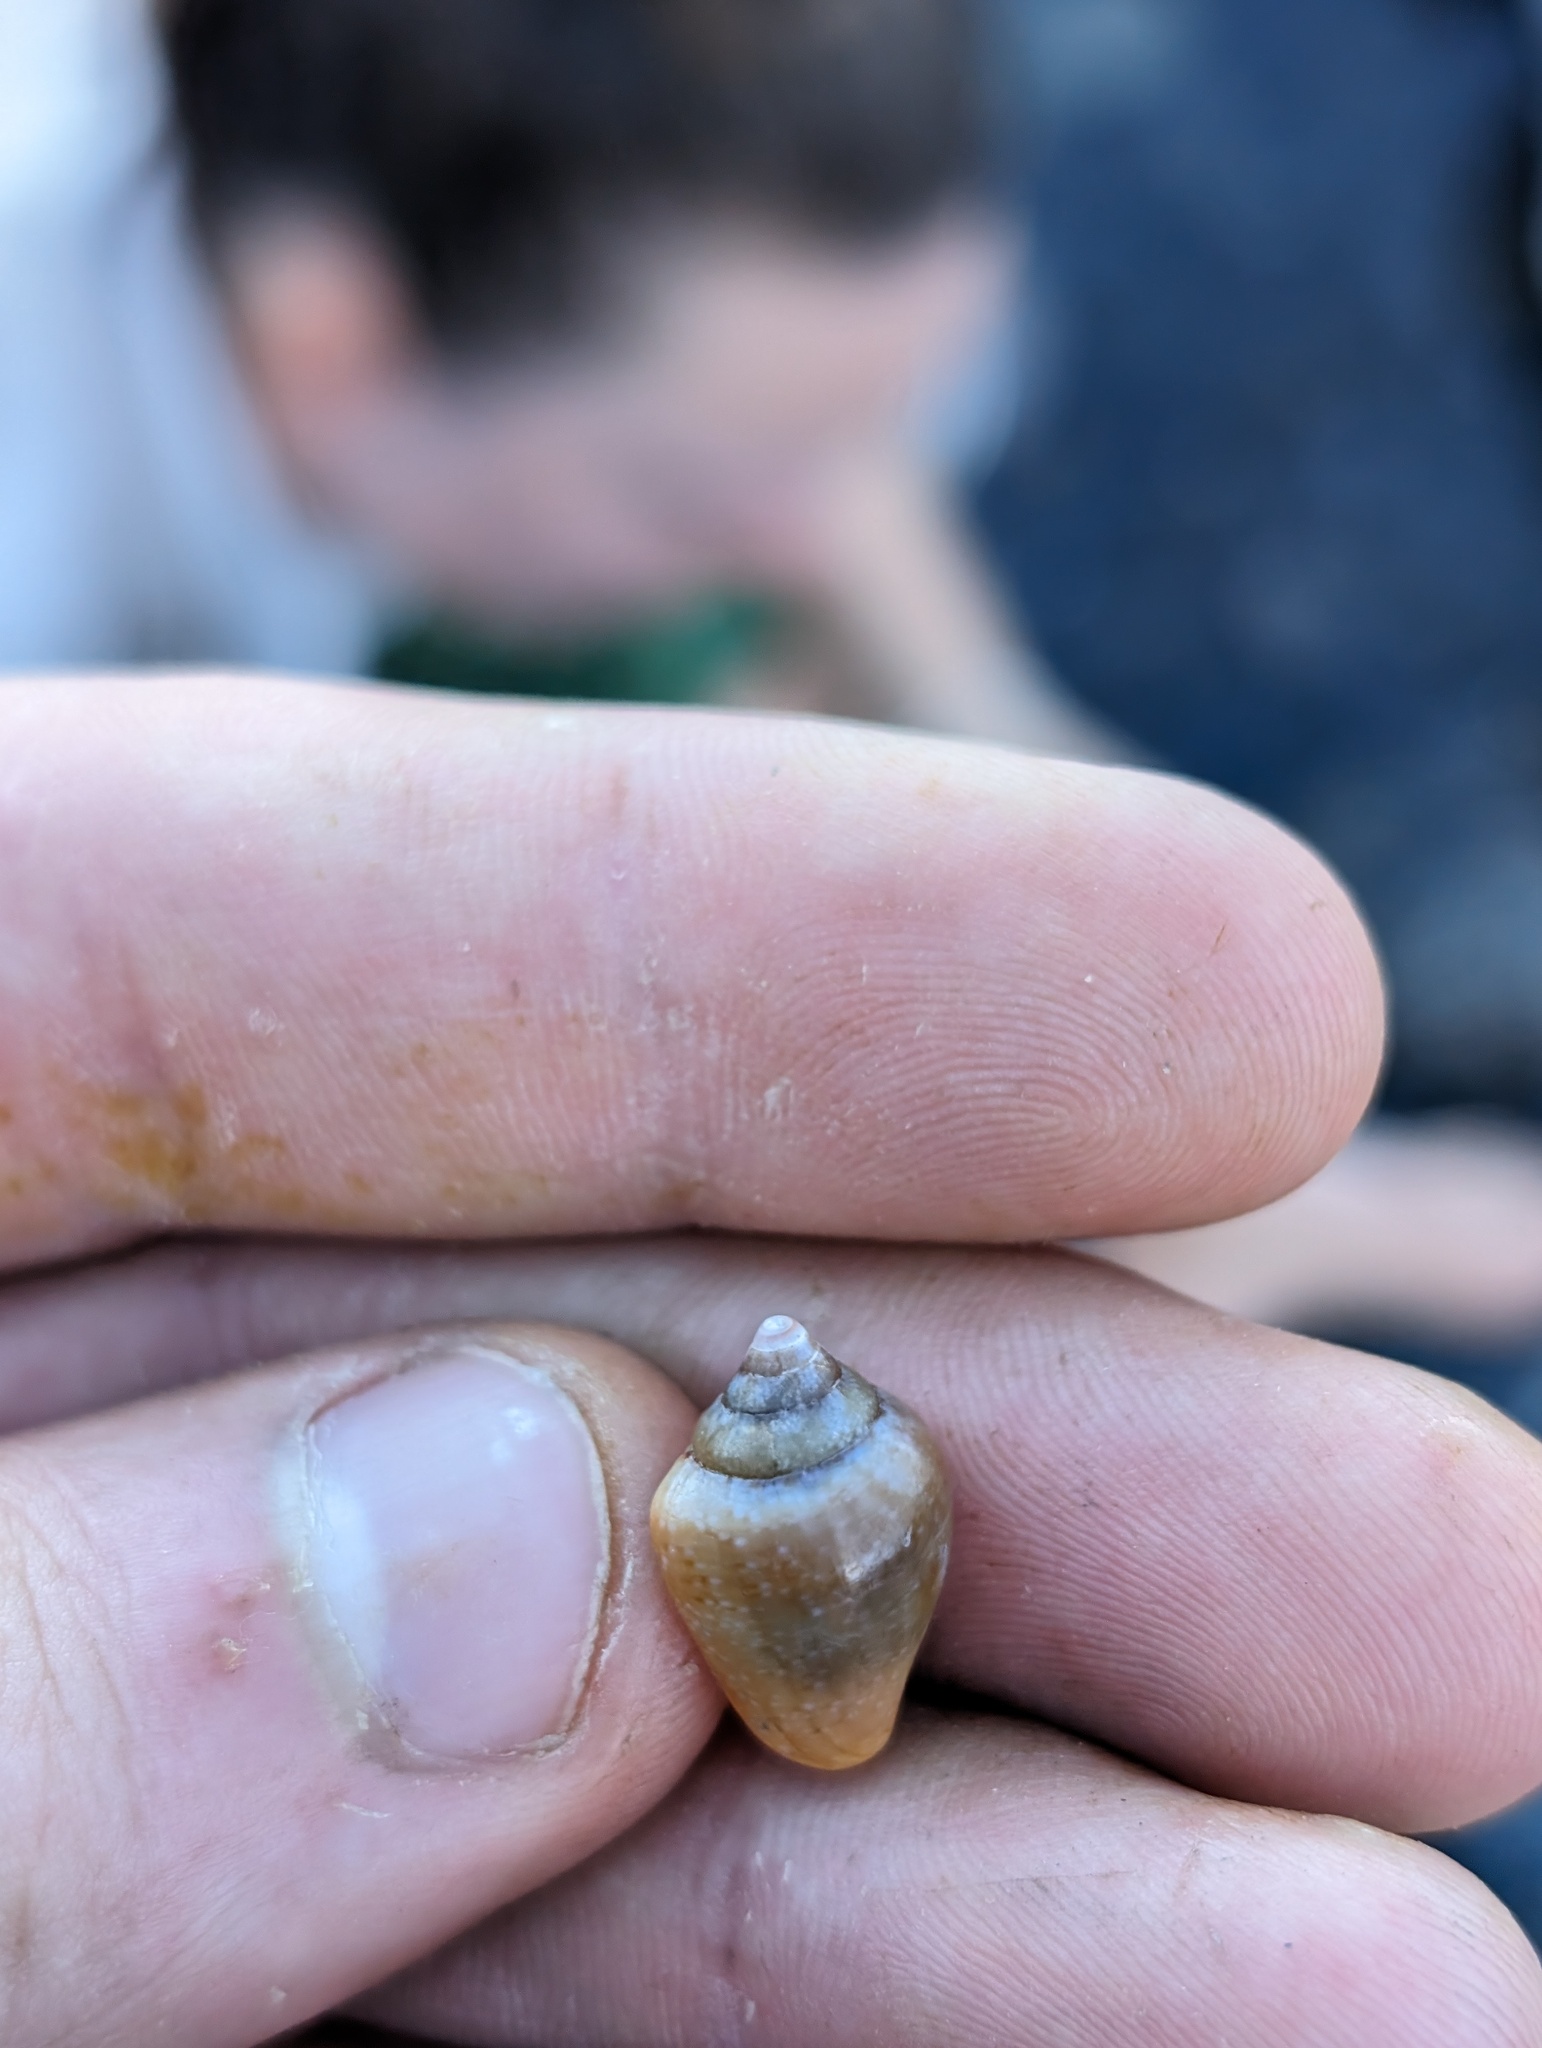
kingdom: Animalia
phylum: Mollusca
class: Gastropoda
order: Neogastropoda
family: Columbellidae
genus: Columbella
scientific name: Columbella aureomexicana
